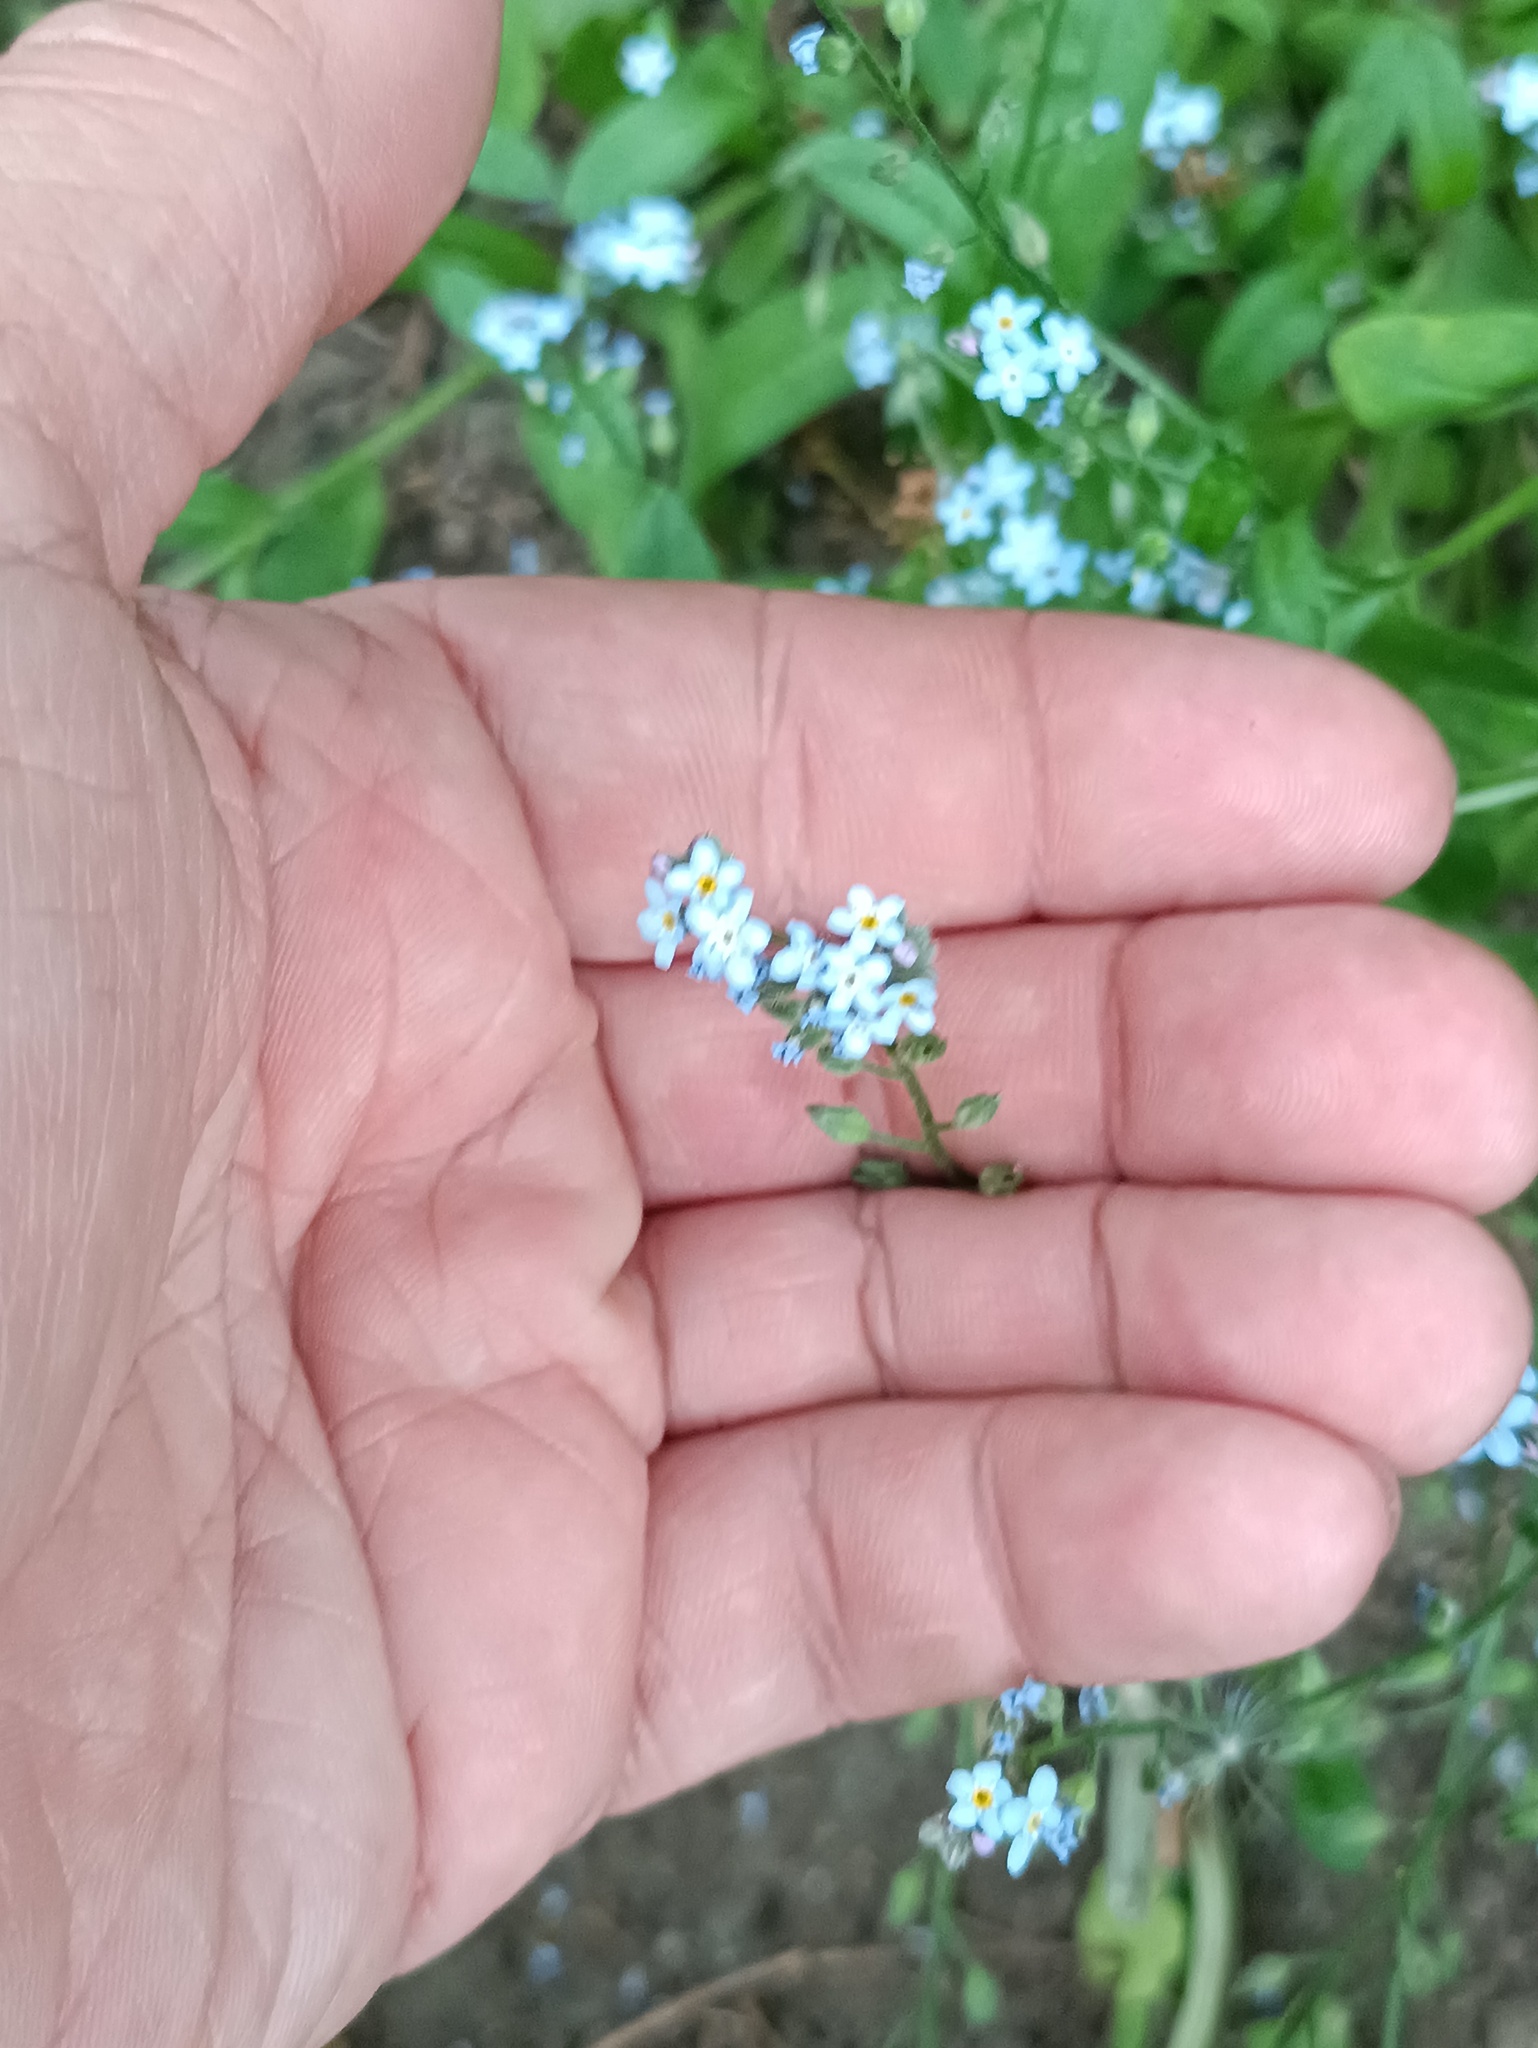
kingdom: Plantae
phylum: Tracheophyta
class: Magnoliopsida
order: Boraginales
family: Boraginaceae
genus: Myosotis
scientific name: Myosotis arvensis
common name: Field forget-me-not
